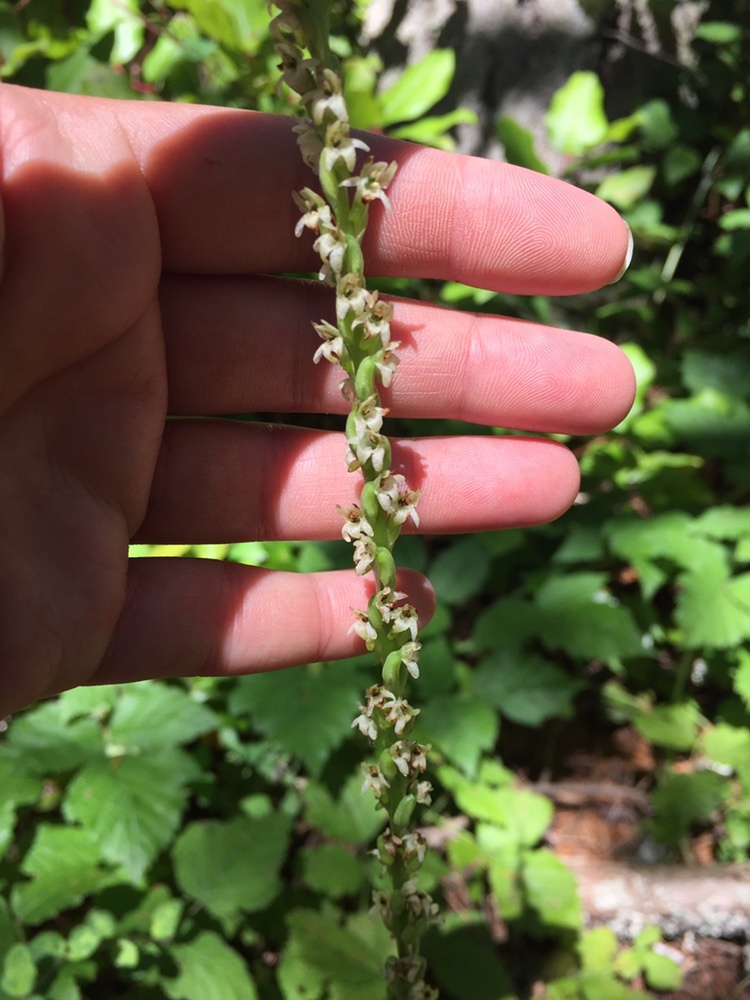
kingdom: Plantae
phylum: Tracheophyta
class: Liliopsida
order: Asparagales
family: Orchidaceae
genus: Platanthera
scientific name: Platanthera ephemerantha
